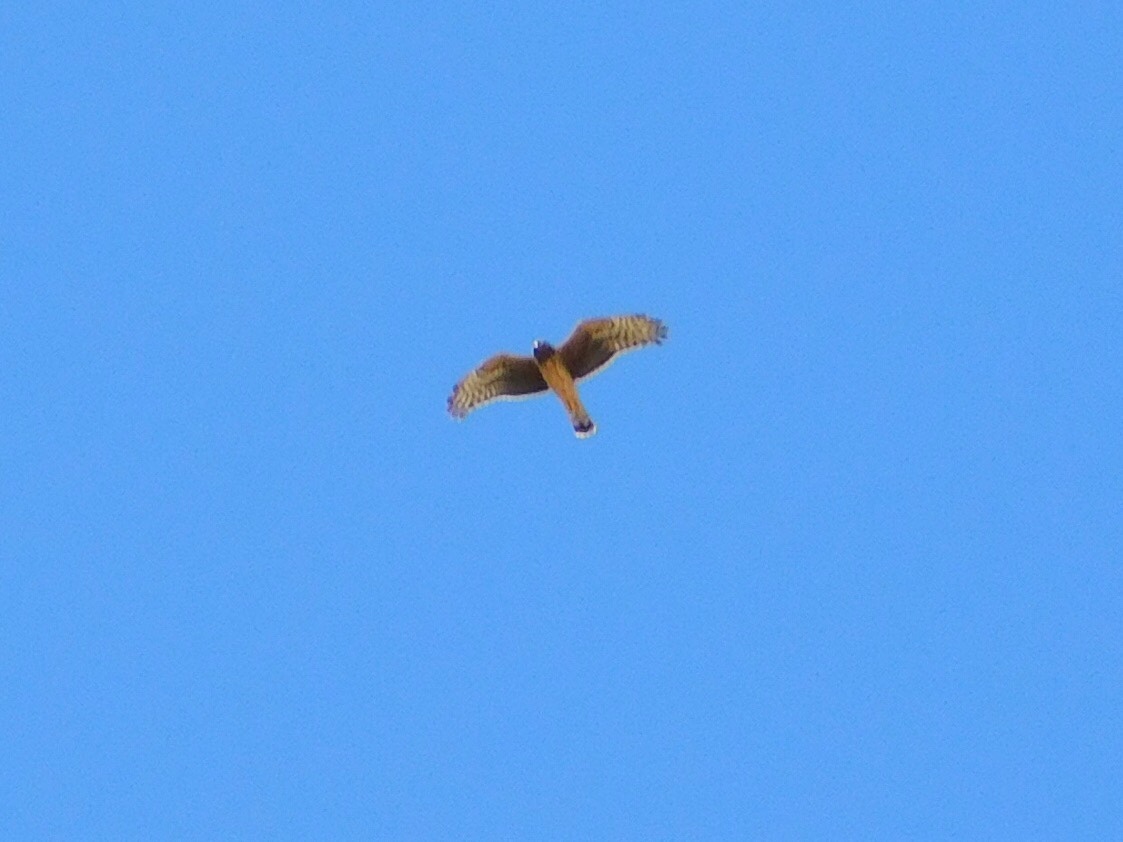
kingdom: Animalia
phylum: Chordata
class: Aves
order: Accipitriformes
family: Accipitridae
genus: Circus
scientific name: Circus buffoni
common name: Long-winged harrier
